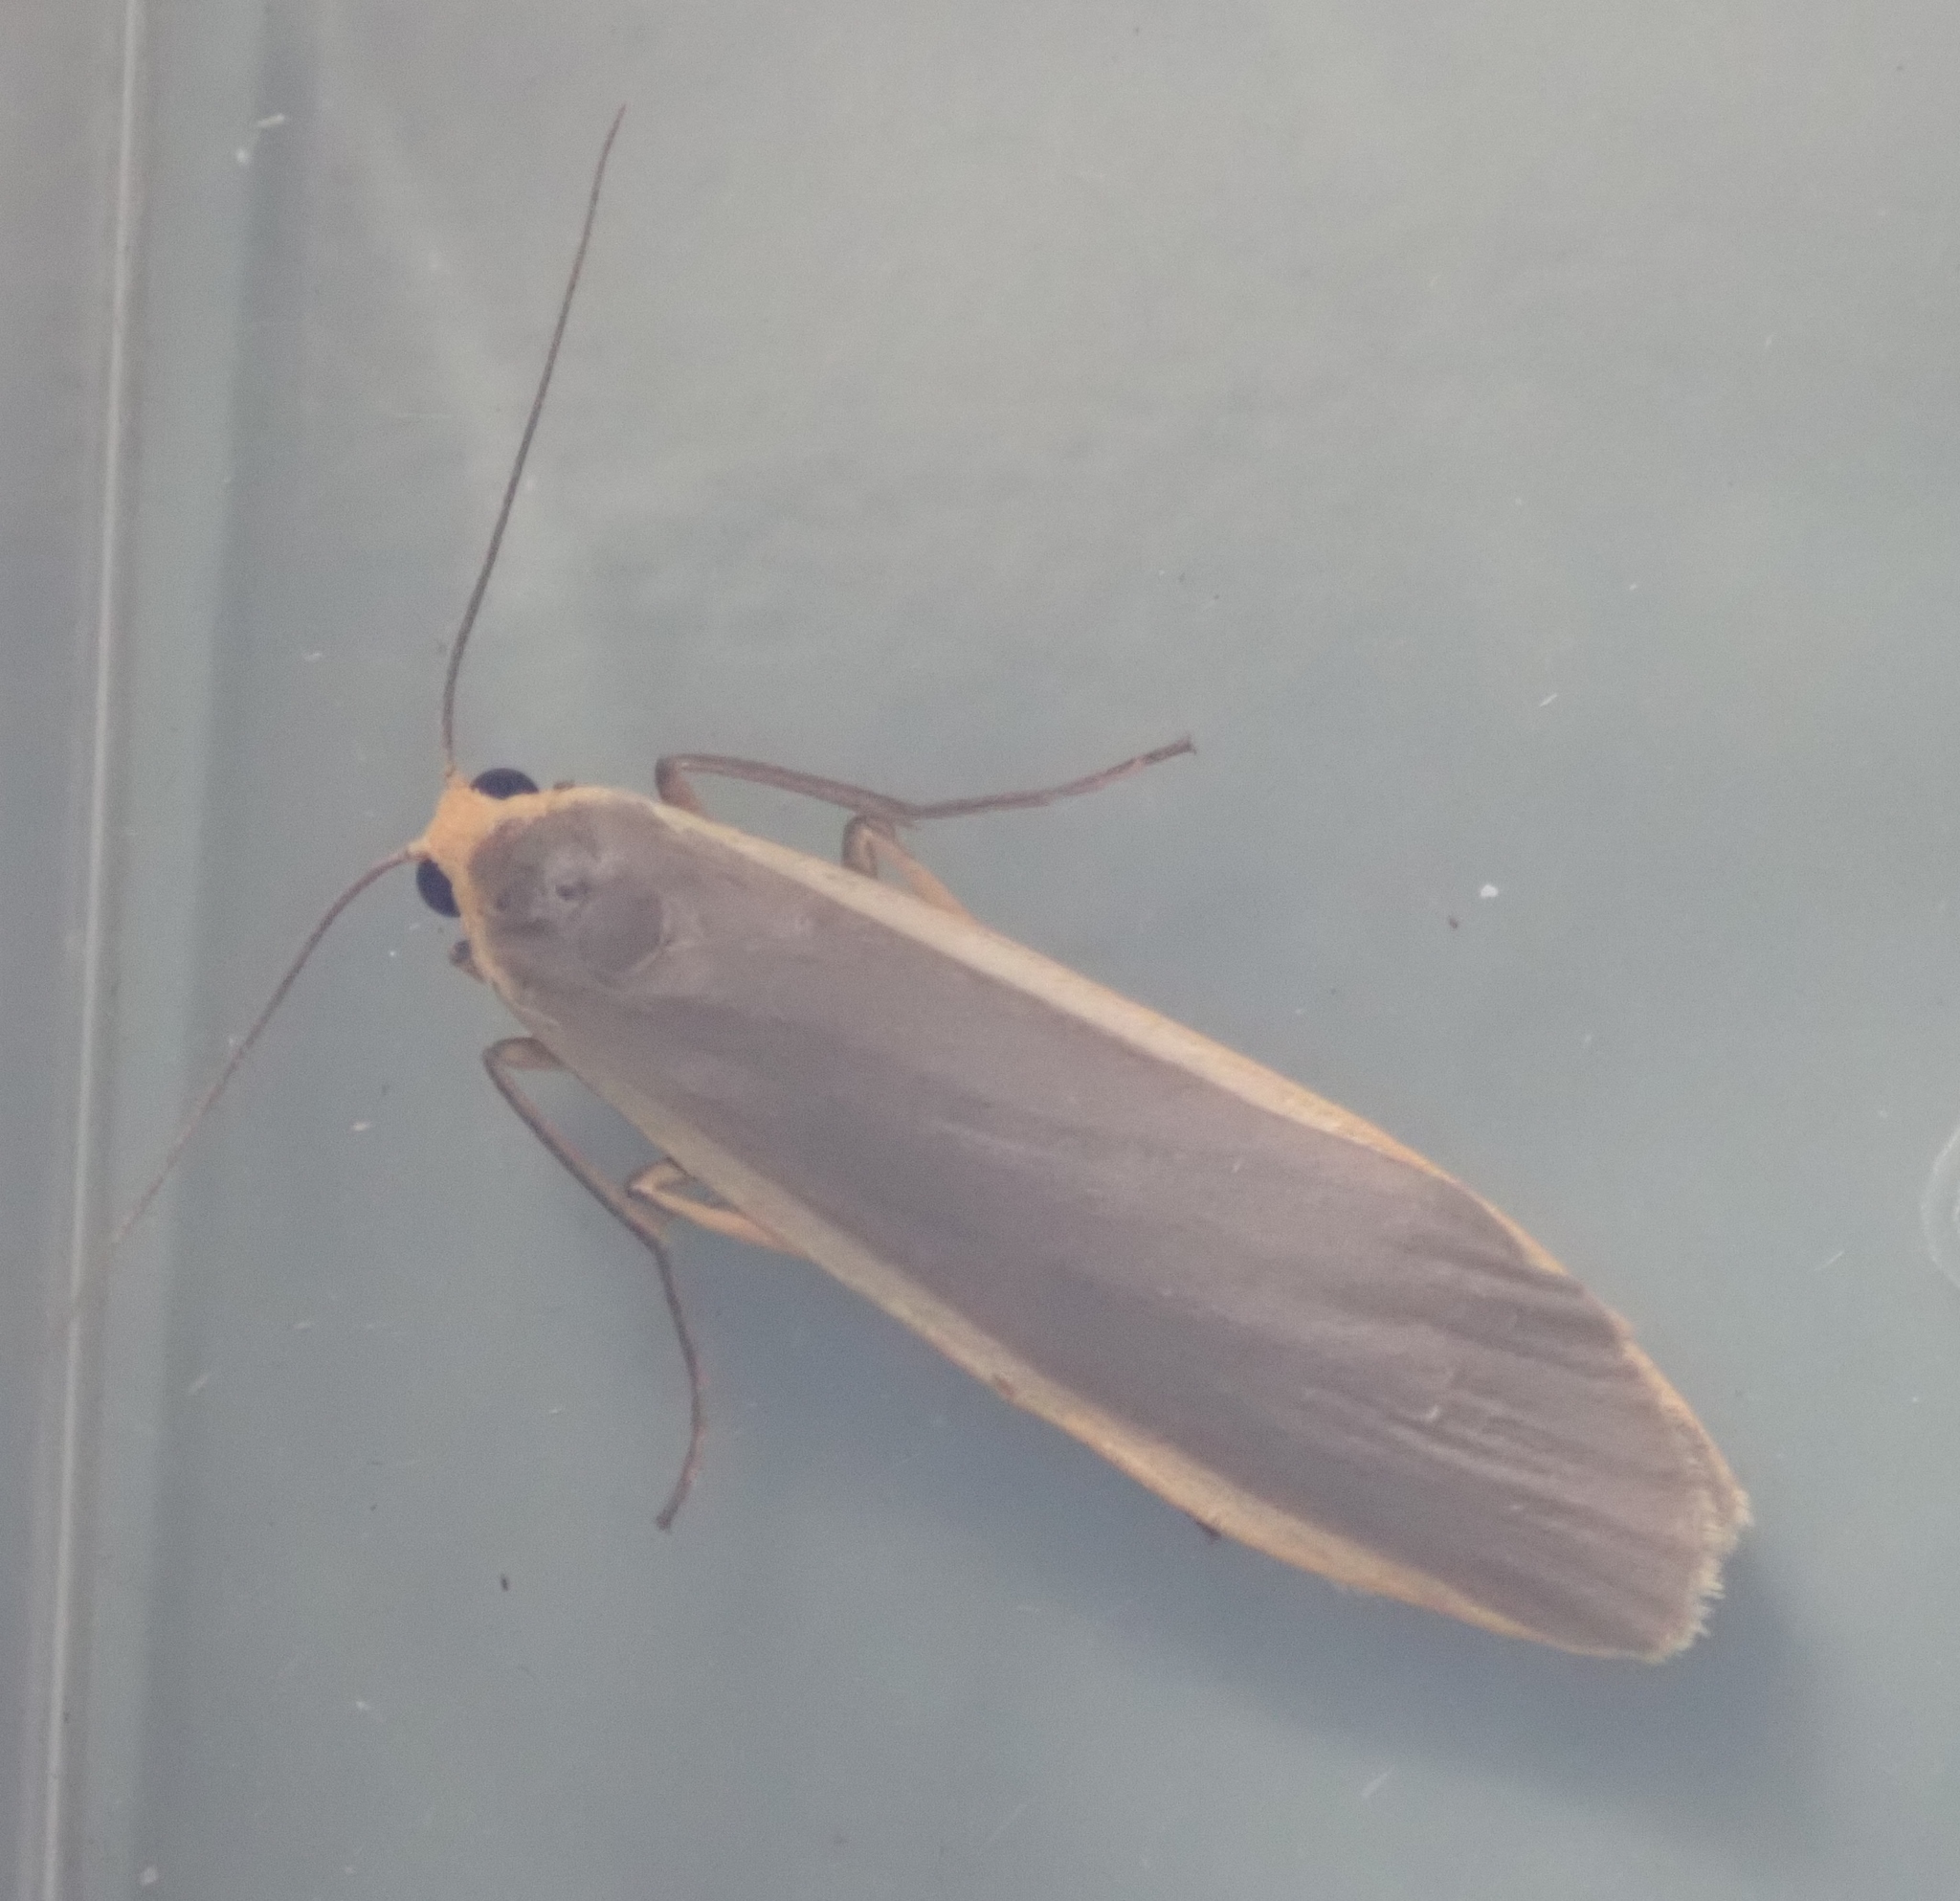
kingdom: Animalia
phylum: Arthropoda
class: Insecta
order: Lepidoptera
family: Erebidae
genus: Nyea
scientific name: Nyea lurideola
